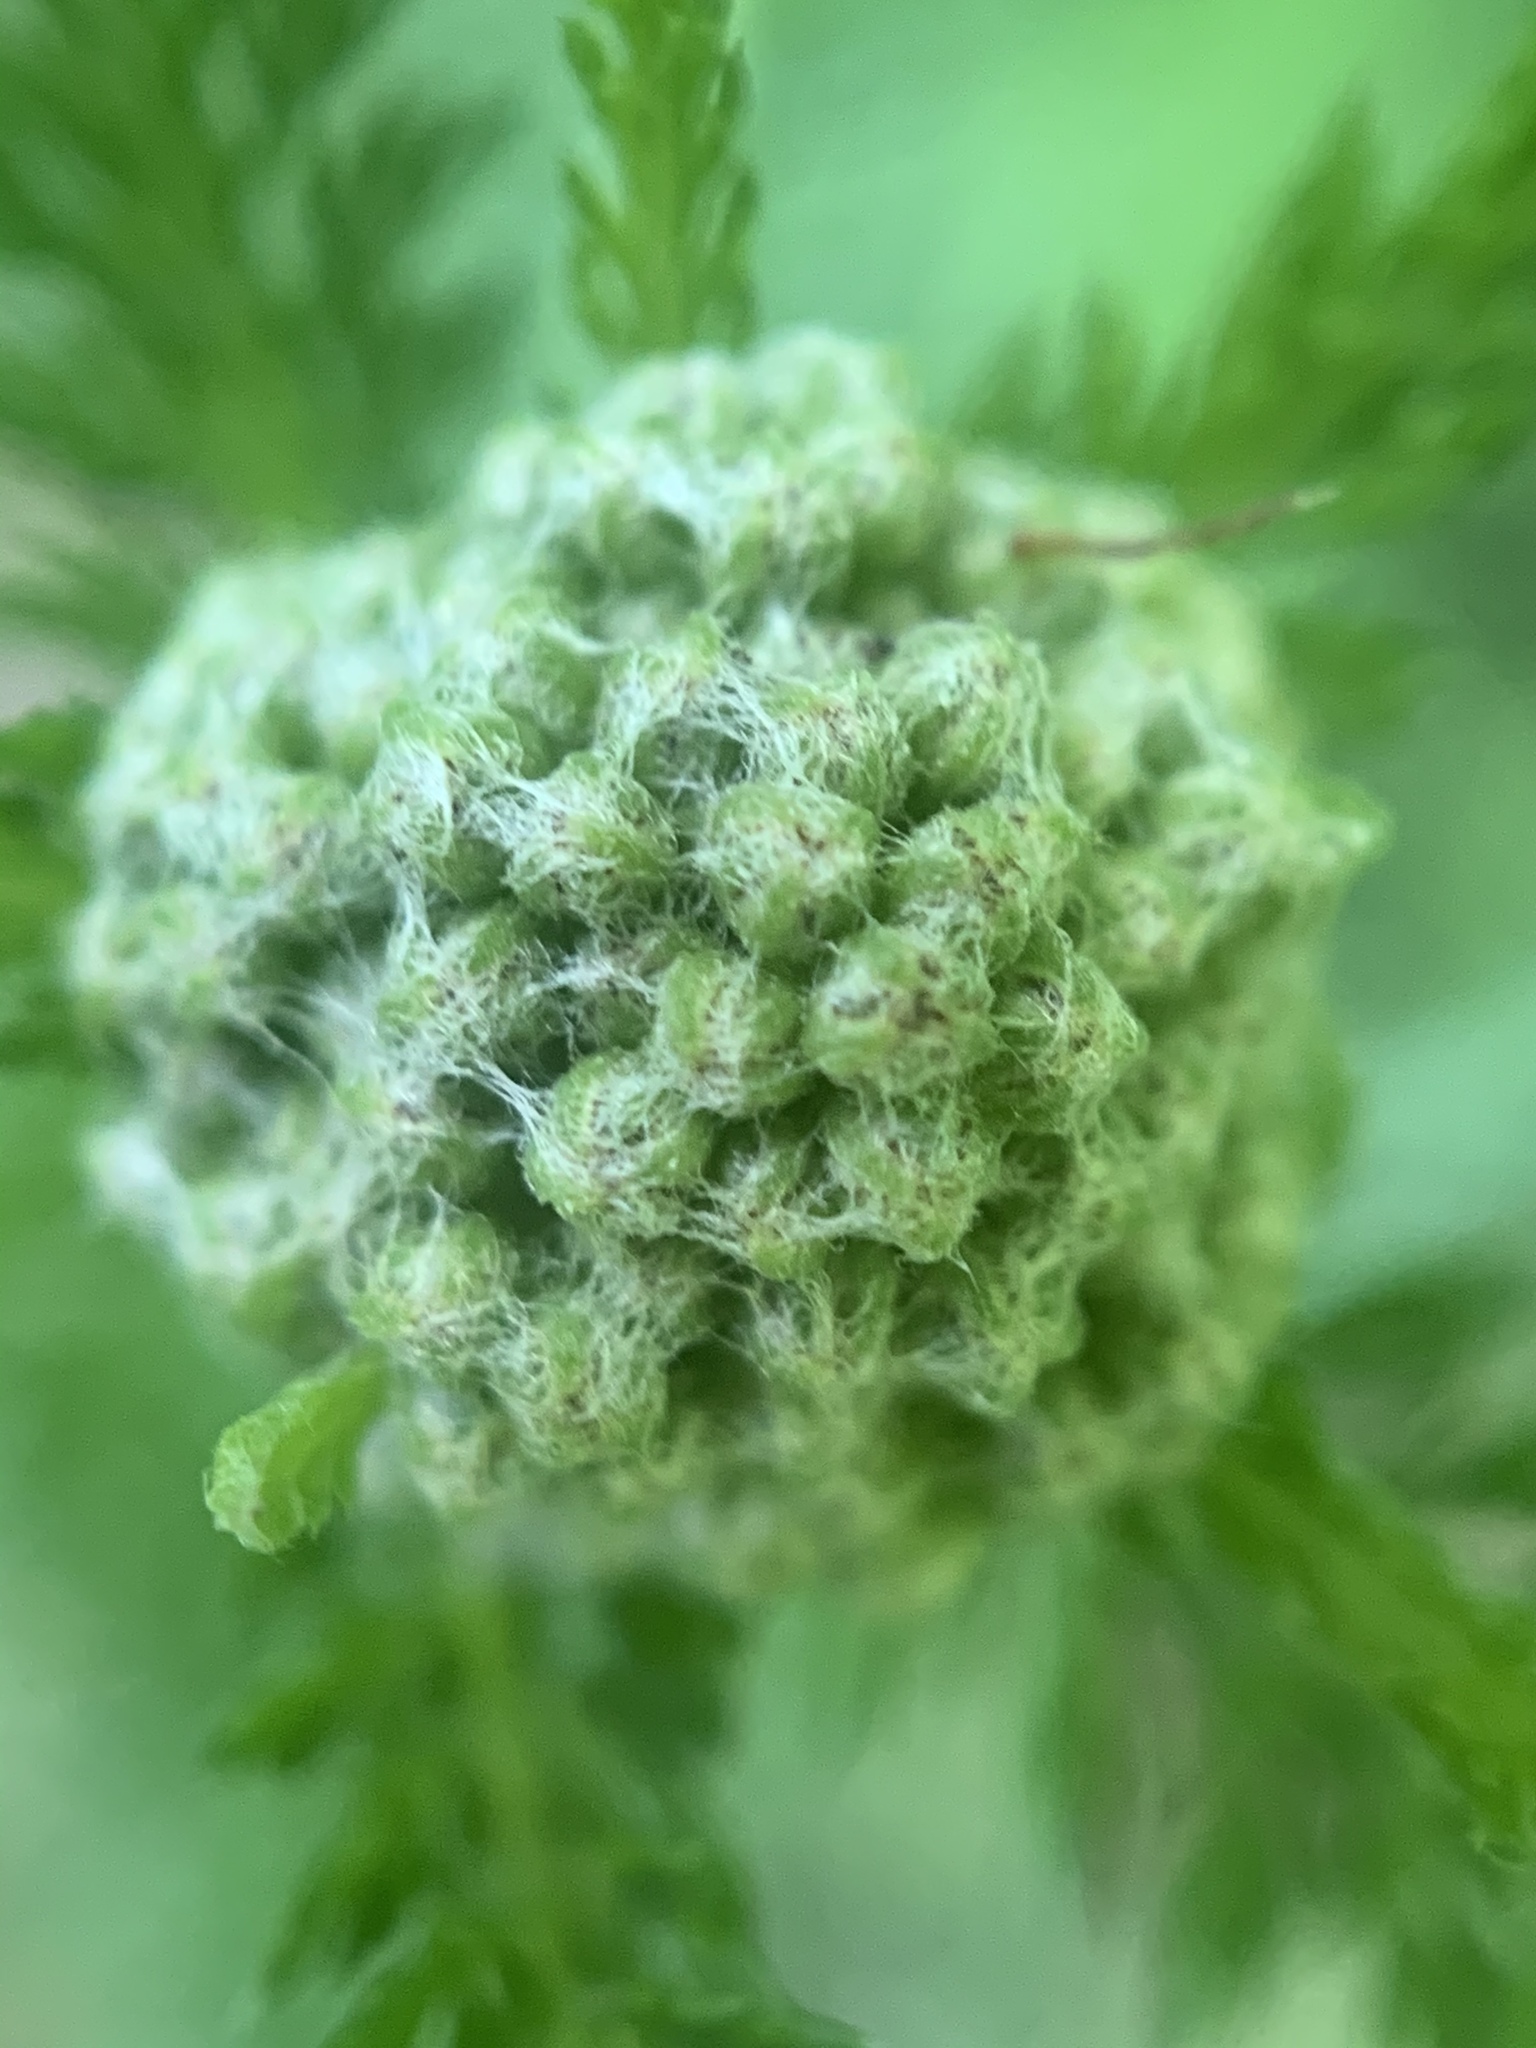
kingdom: Plantae
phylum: Tracheophyta
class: Magnoliopsida
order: Asterales
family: Asteraceae
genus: Achillea
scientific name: Achillea millefolium
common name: Yarrow
